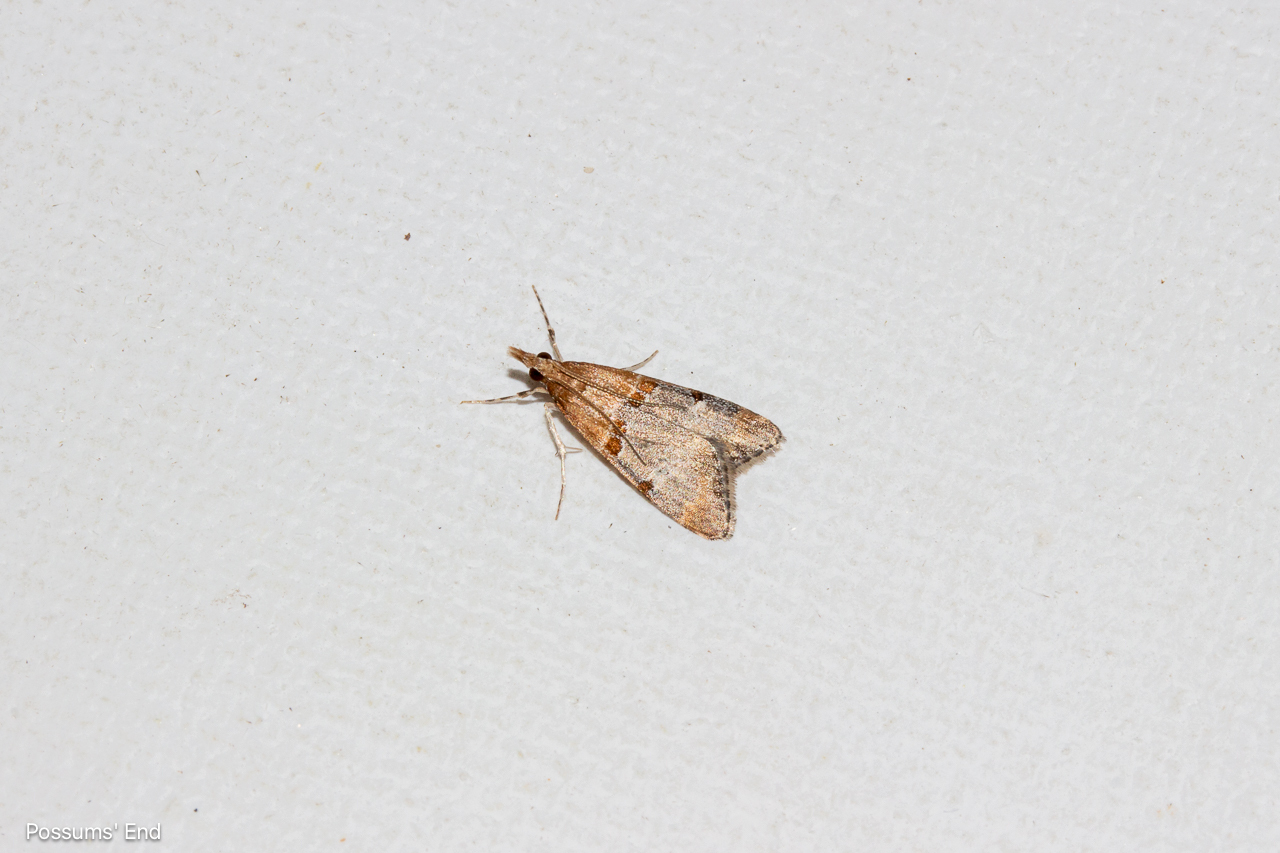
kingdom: Animalia
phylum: Arthropoda
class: Insecta
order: Lepidoptera
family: Crambidae
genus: Antiscopa
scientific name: Antiscopa epicomia
